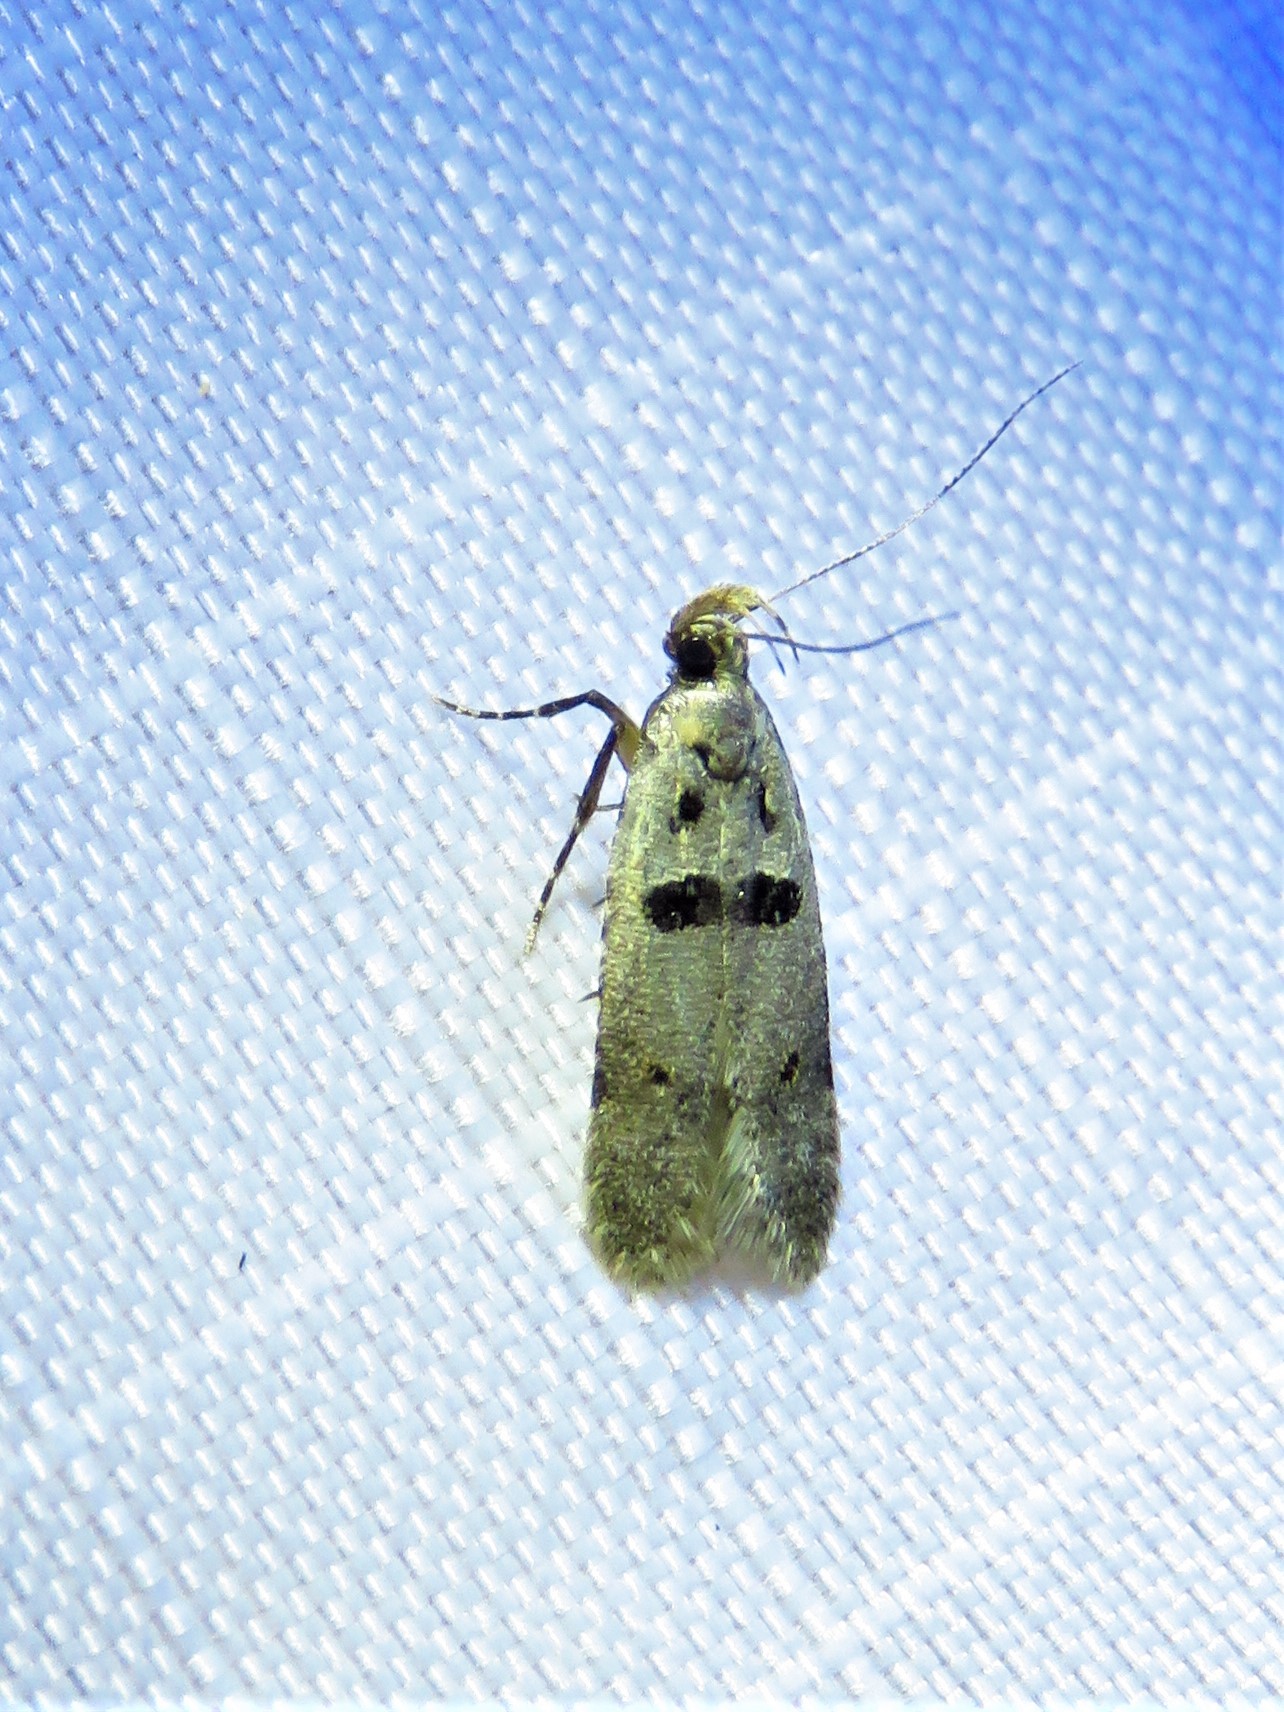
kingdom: Animalia
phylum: Arthropoda
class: Insecta
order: Lepidoptera
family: Gelechiidae
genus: Deltophora
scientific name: Deltophora glandiferella
